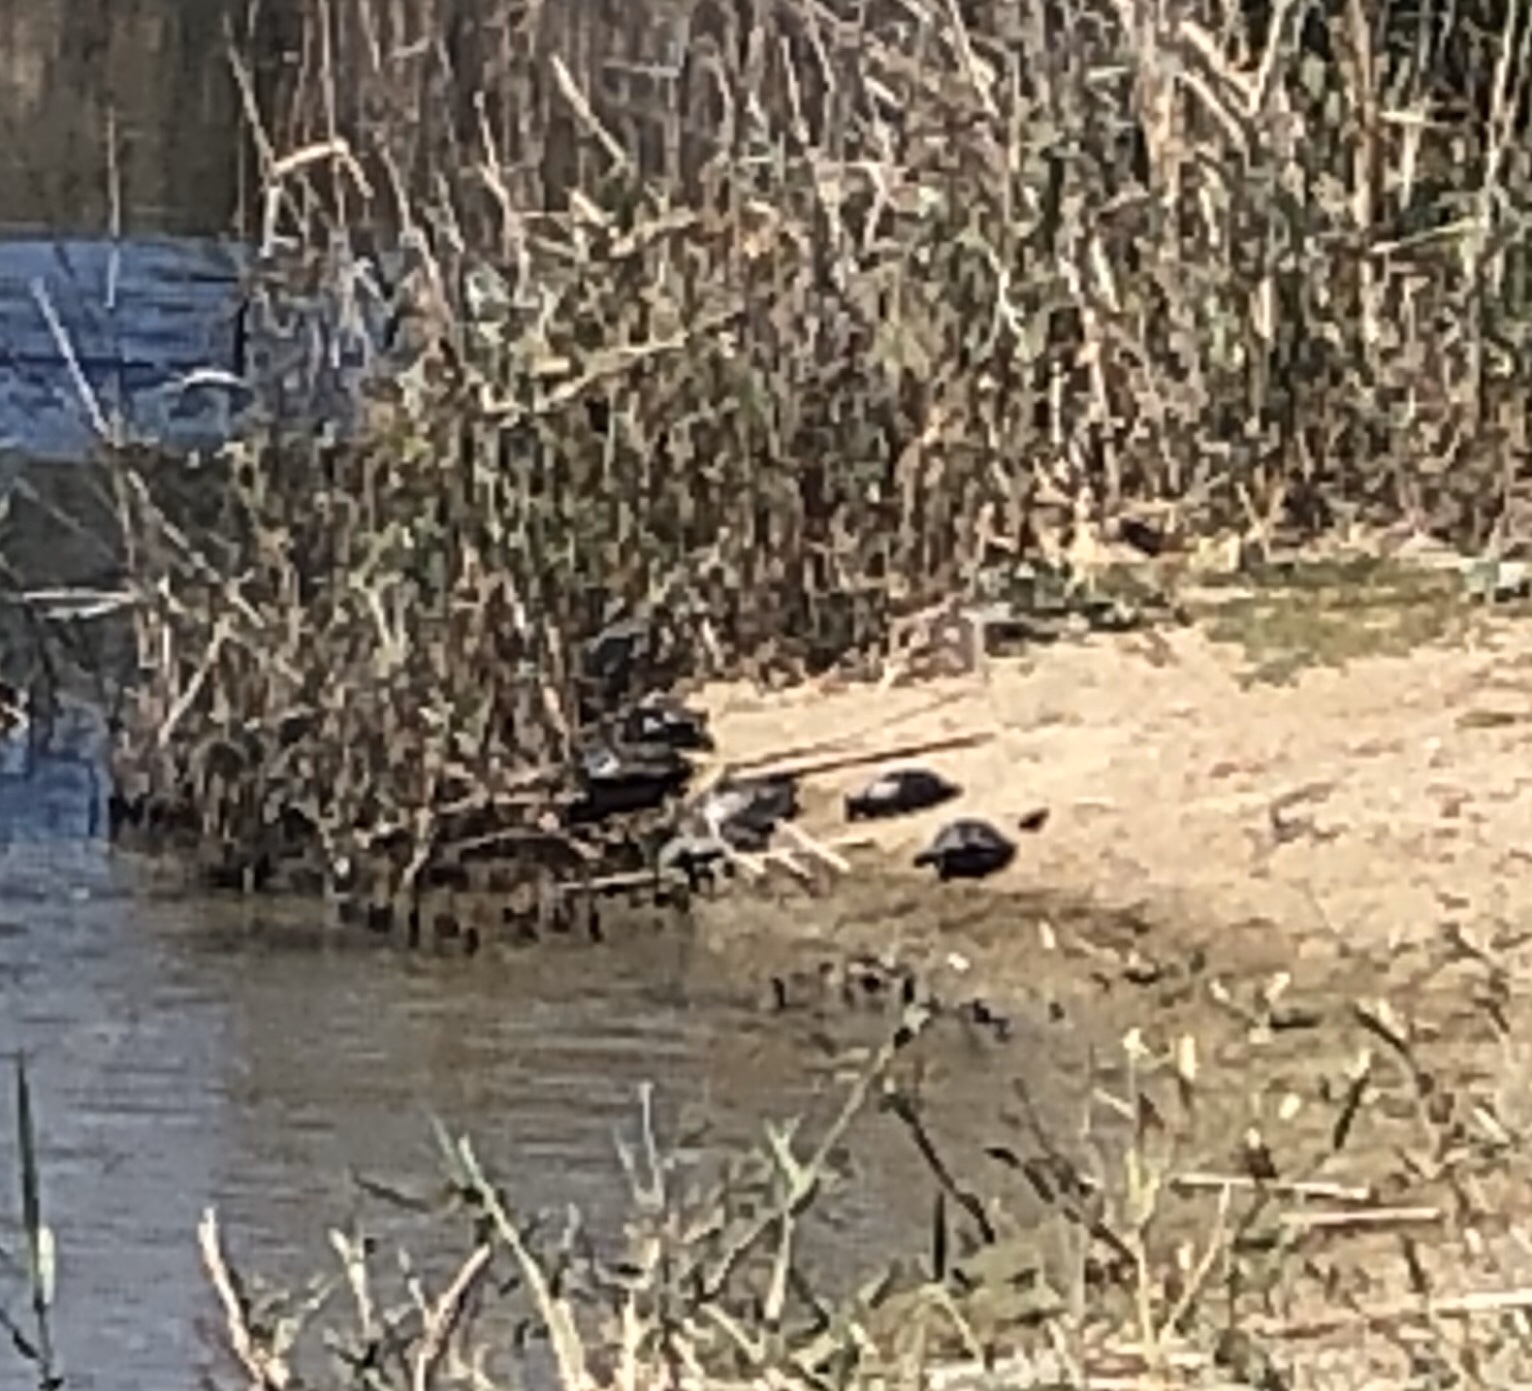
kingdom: Animalia
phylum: Chordata
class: Testudines
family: Geoemydidae
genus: Mauremys
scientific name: Mauremys rivulata
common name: Western caspian turtle
